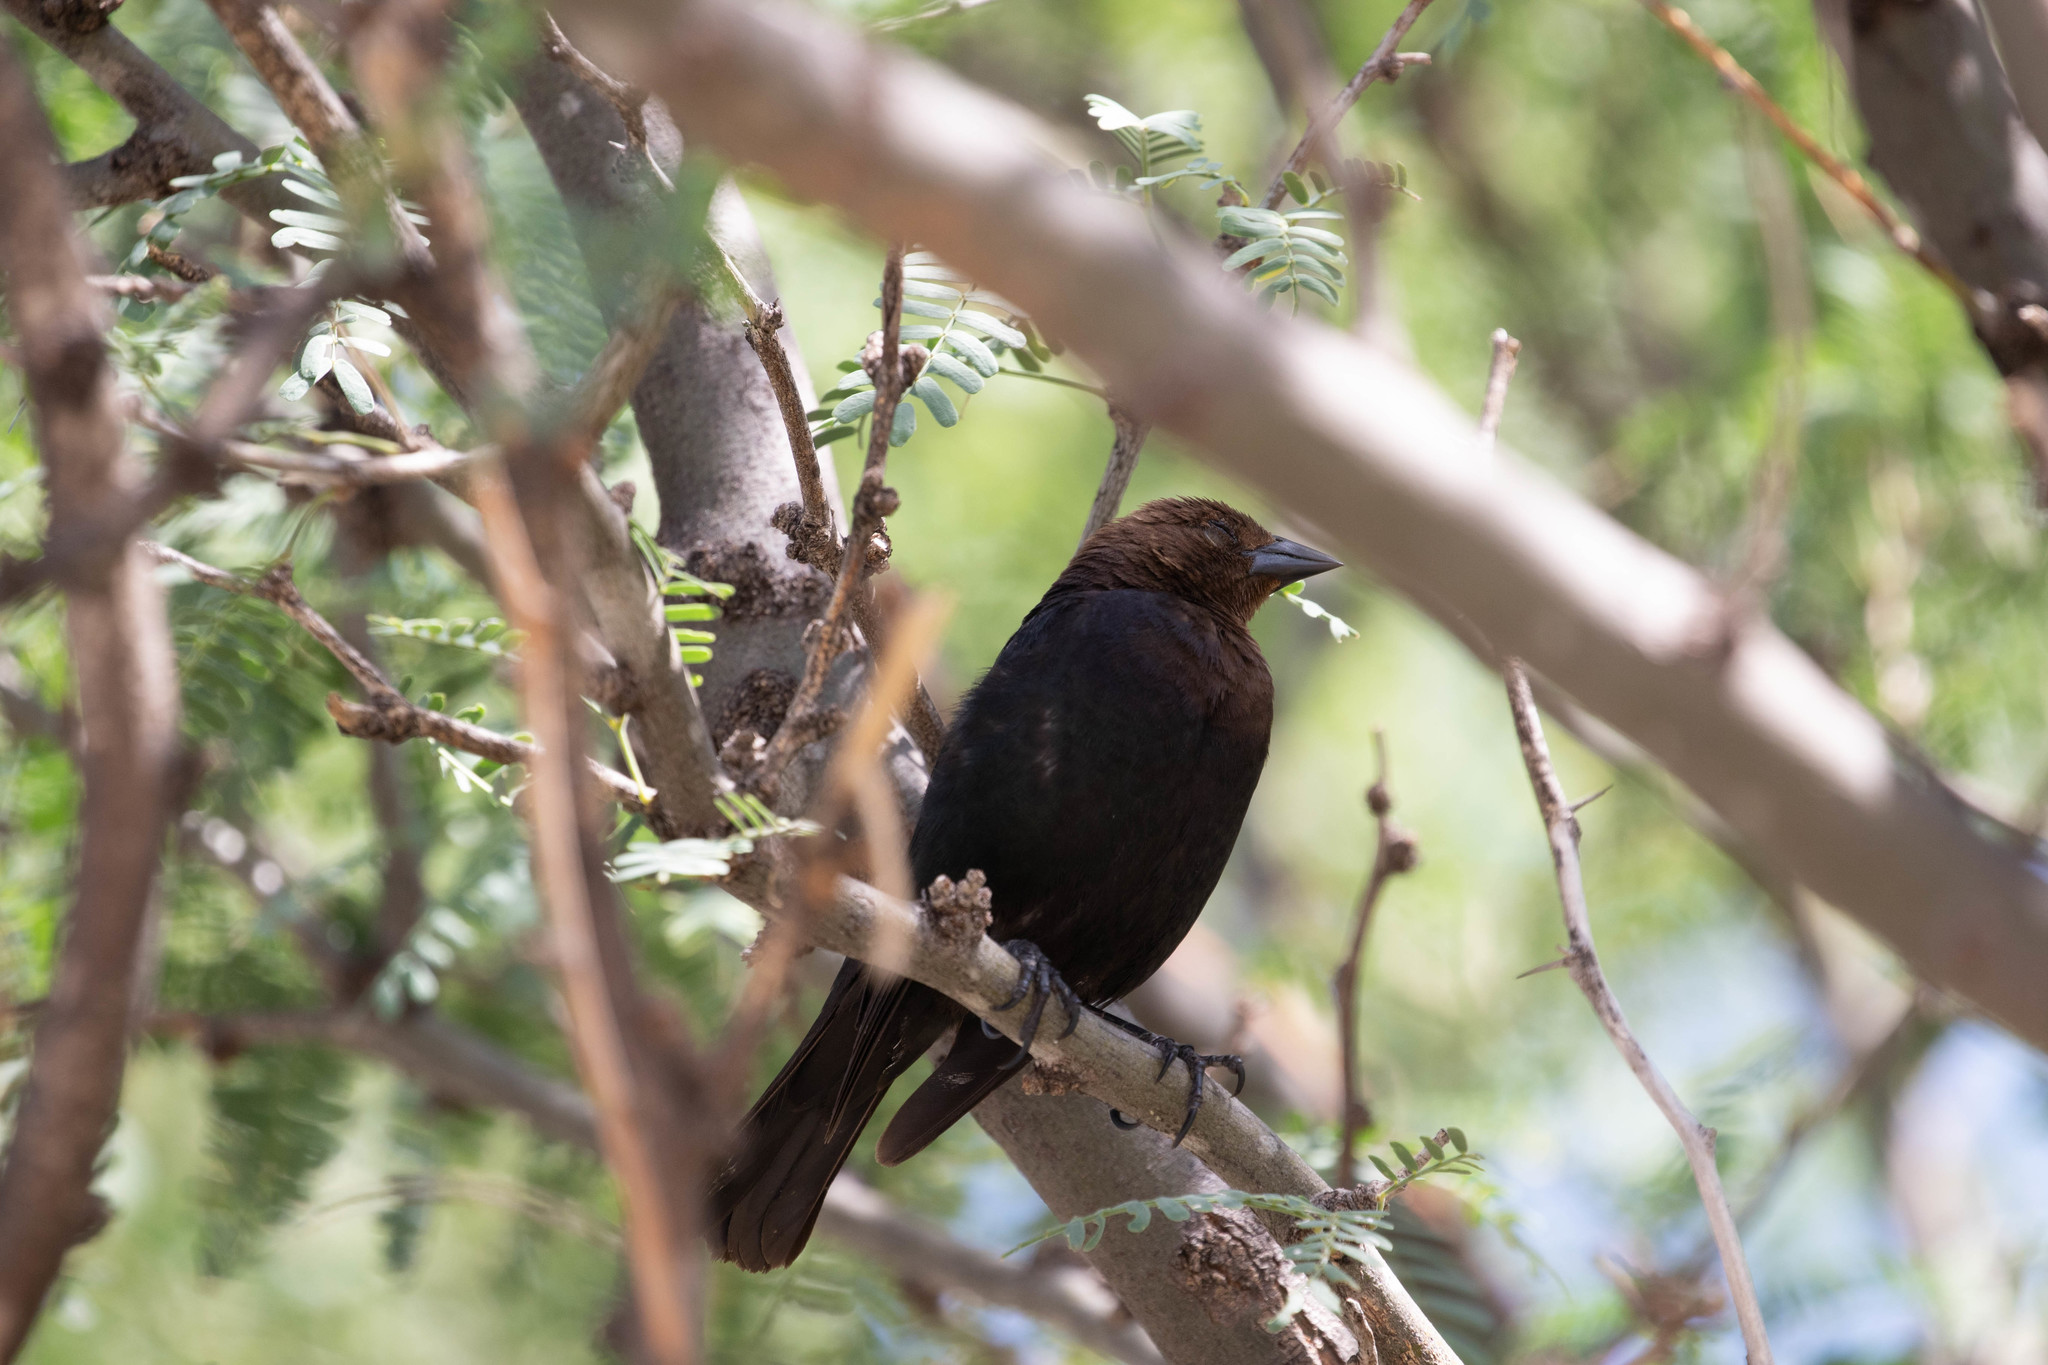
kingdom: Animalia
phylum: Chordata
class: Aves
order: Passeriformes
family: Icteridae
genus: Molothrus
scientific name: Molothrus ater
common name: Brown-headed cowbird
